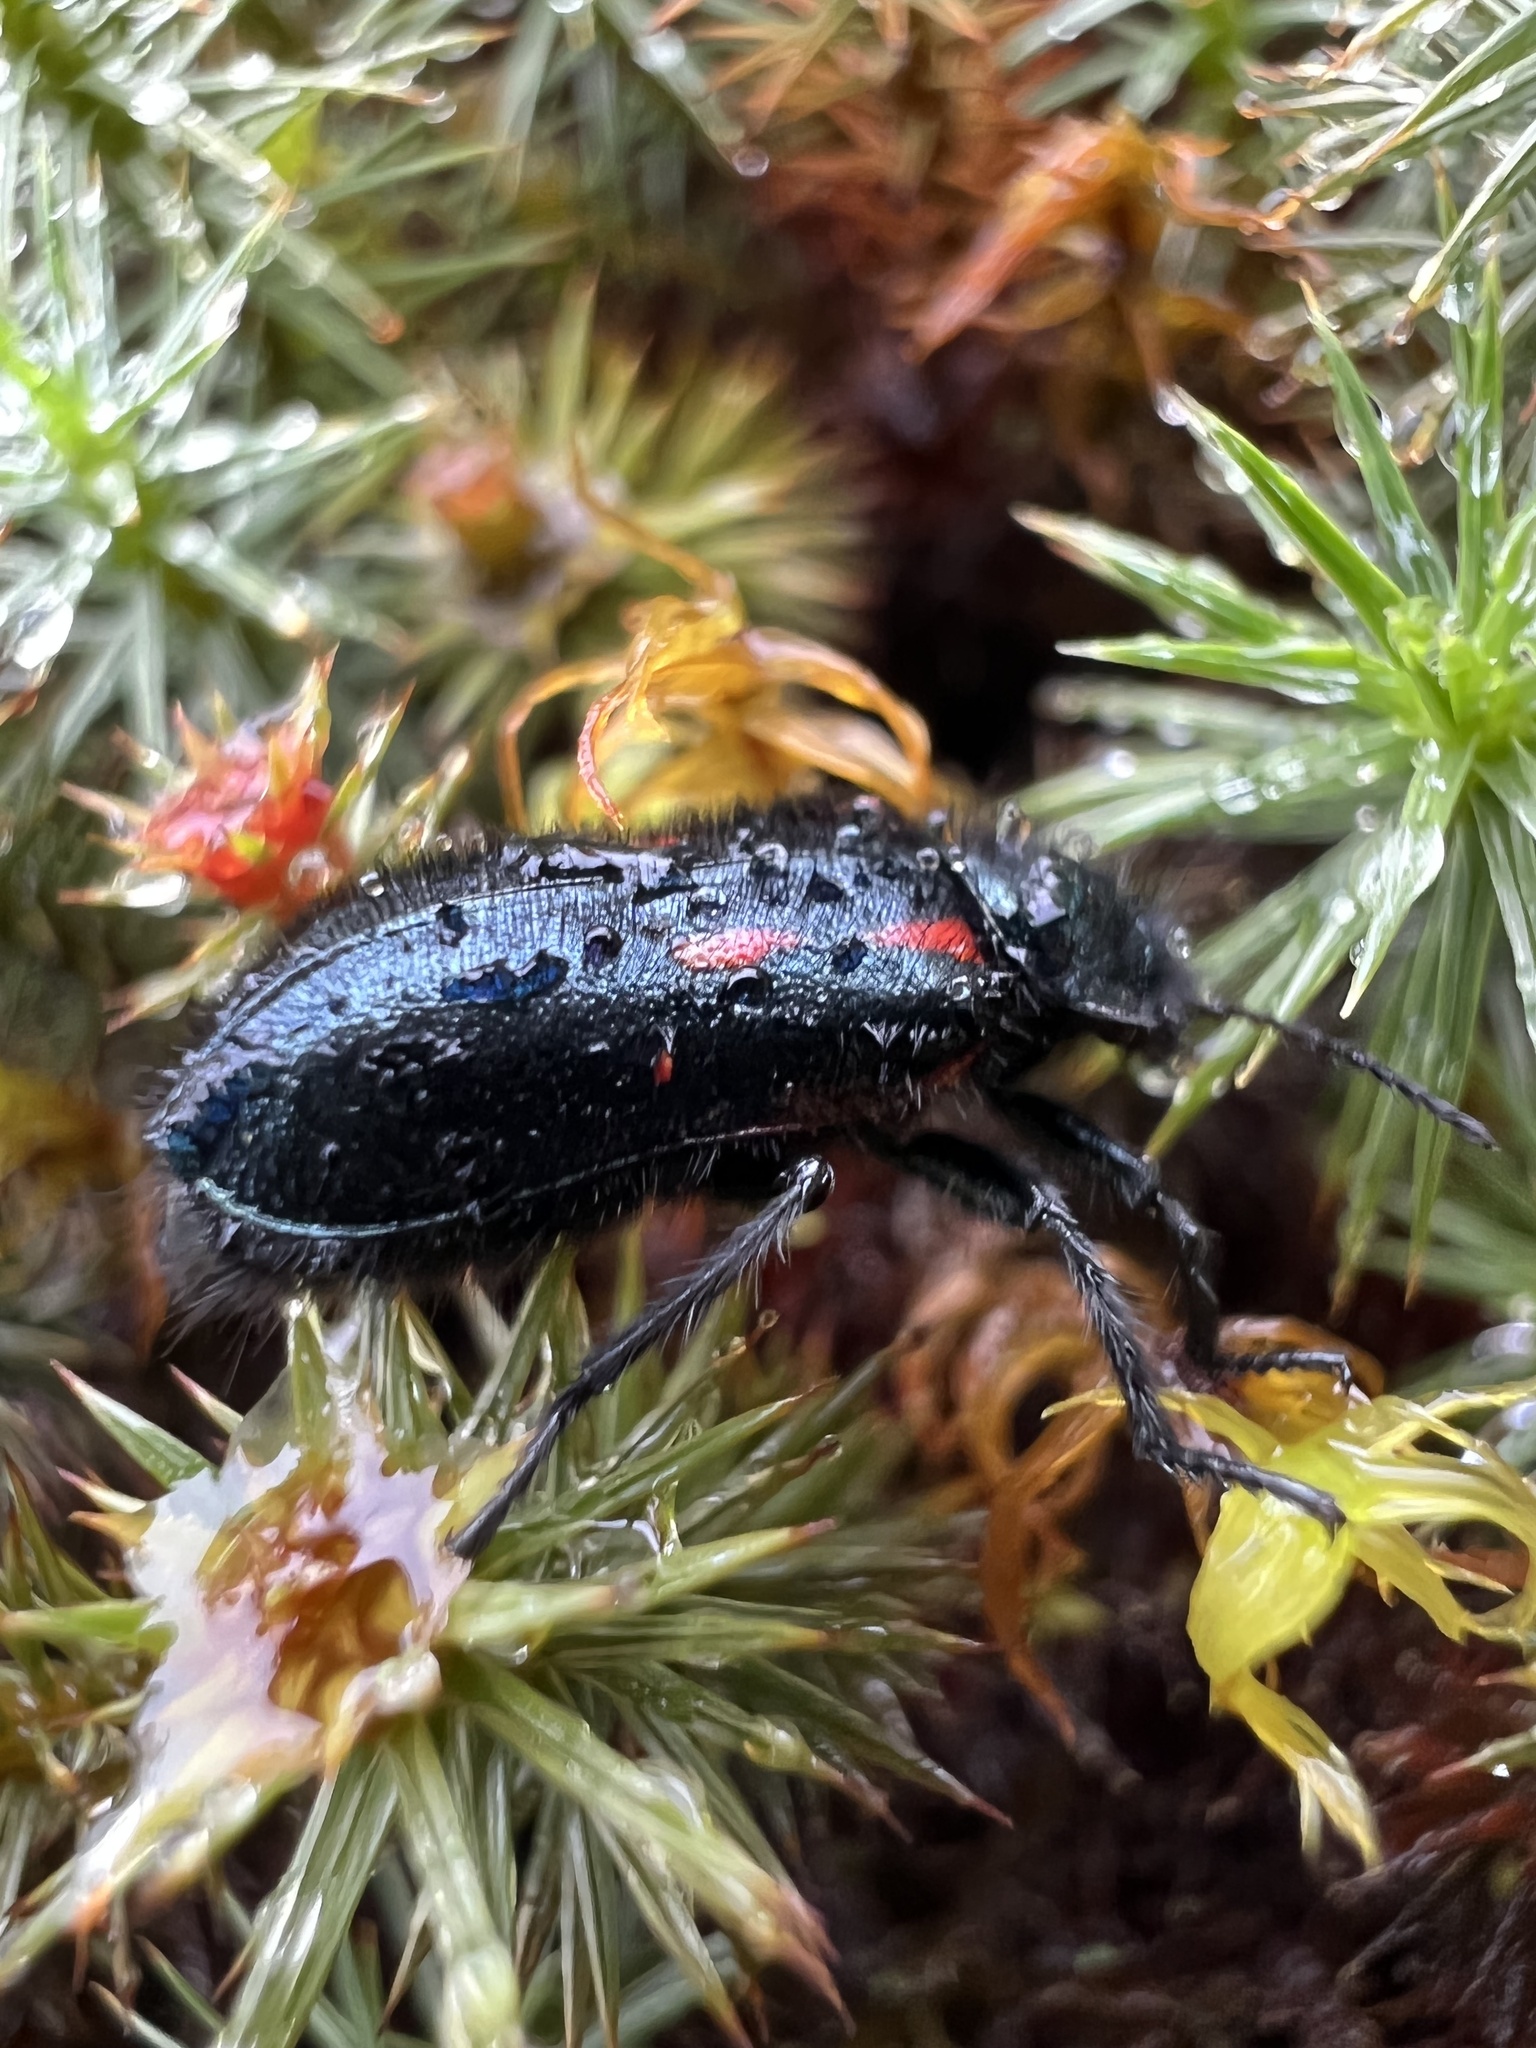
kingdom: Animalia
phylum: Arthropoda
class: Insecta
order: Coleoptera
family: Melyridae
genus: Astylus
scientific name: Astylus
